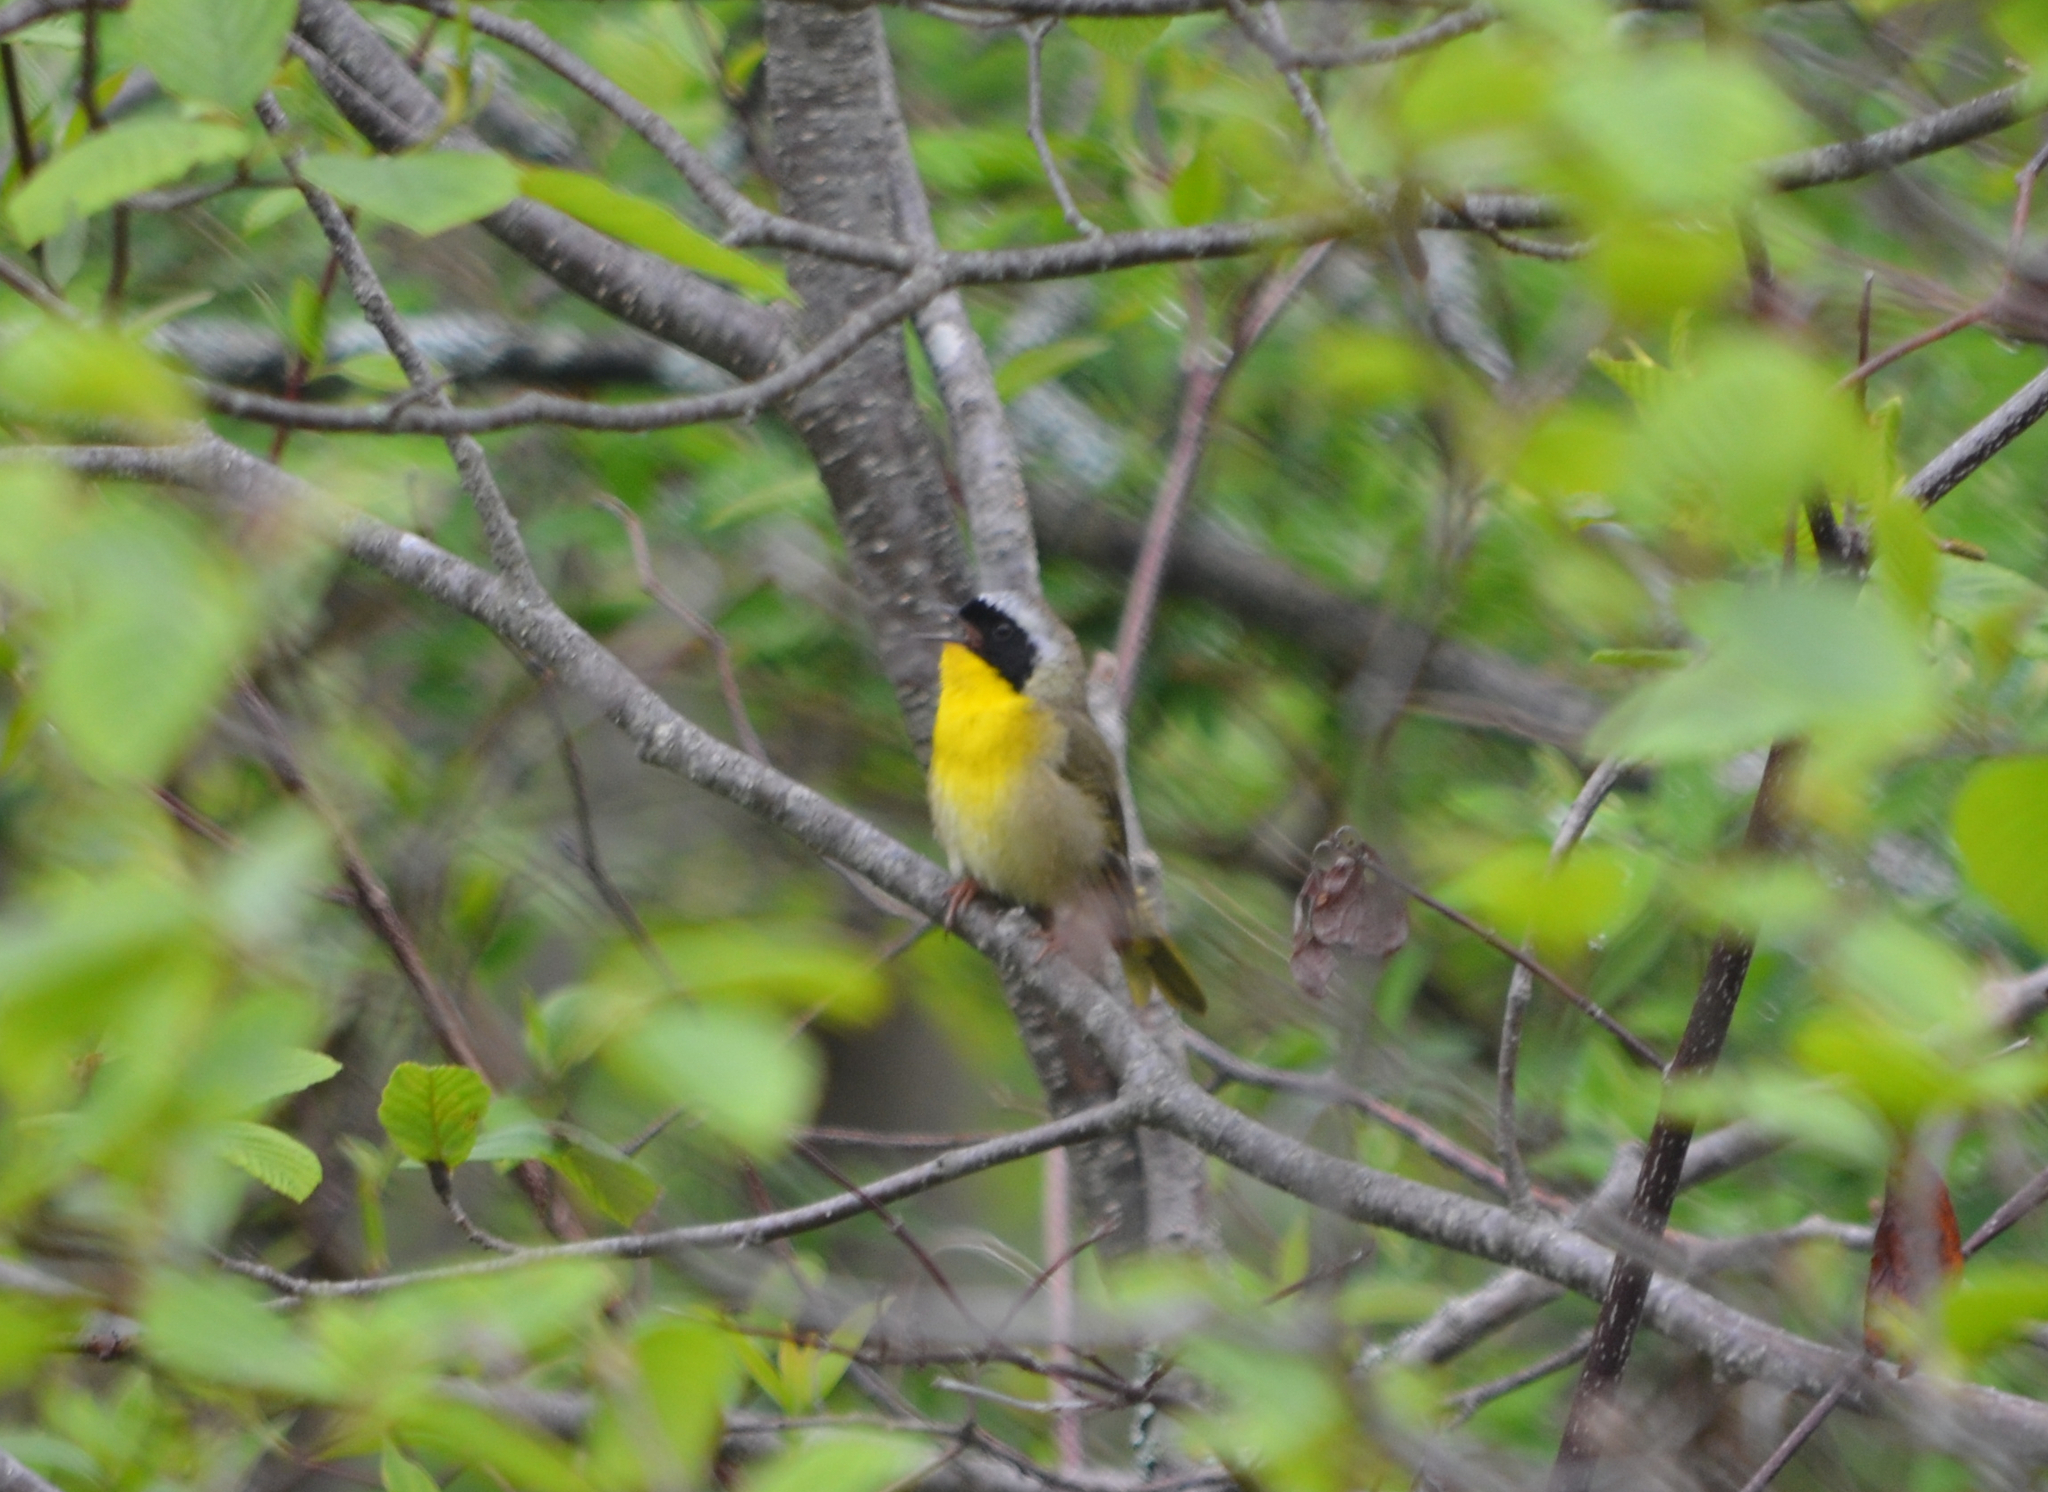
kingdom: Animalia
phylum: Chordata
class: Aves
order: Passeriformes
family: Parulidae
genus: Geothlypis
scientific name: Geothlypis trichas
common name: Common yellowthroat
